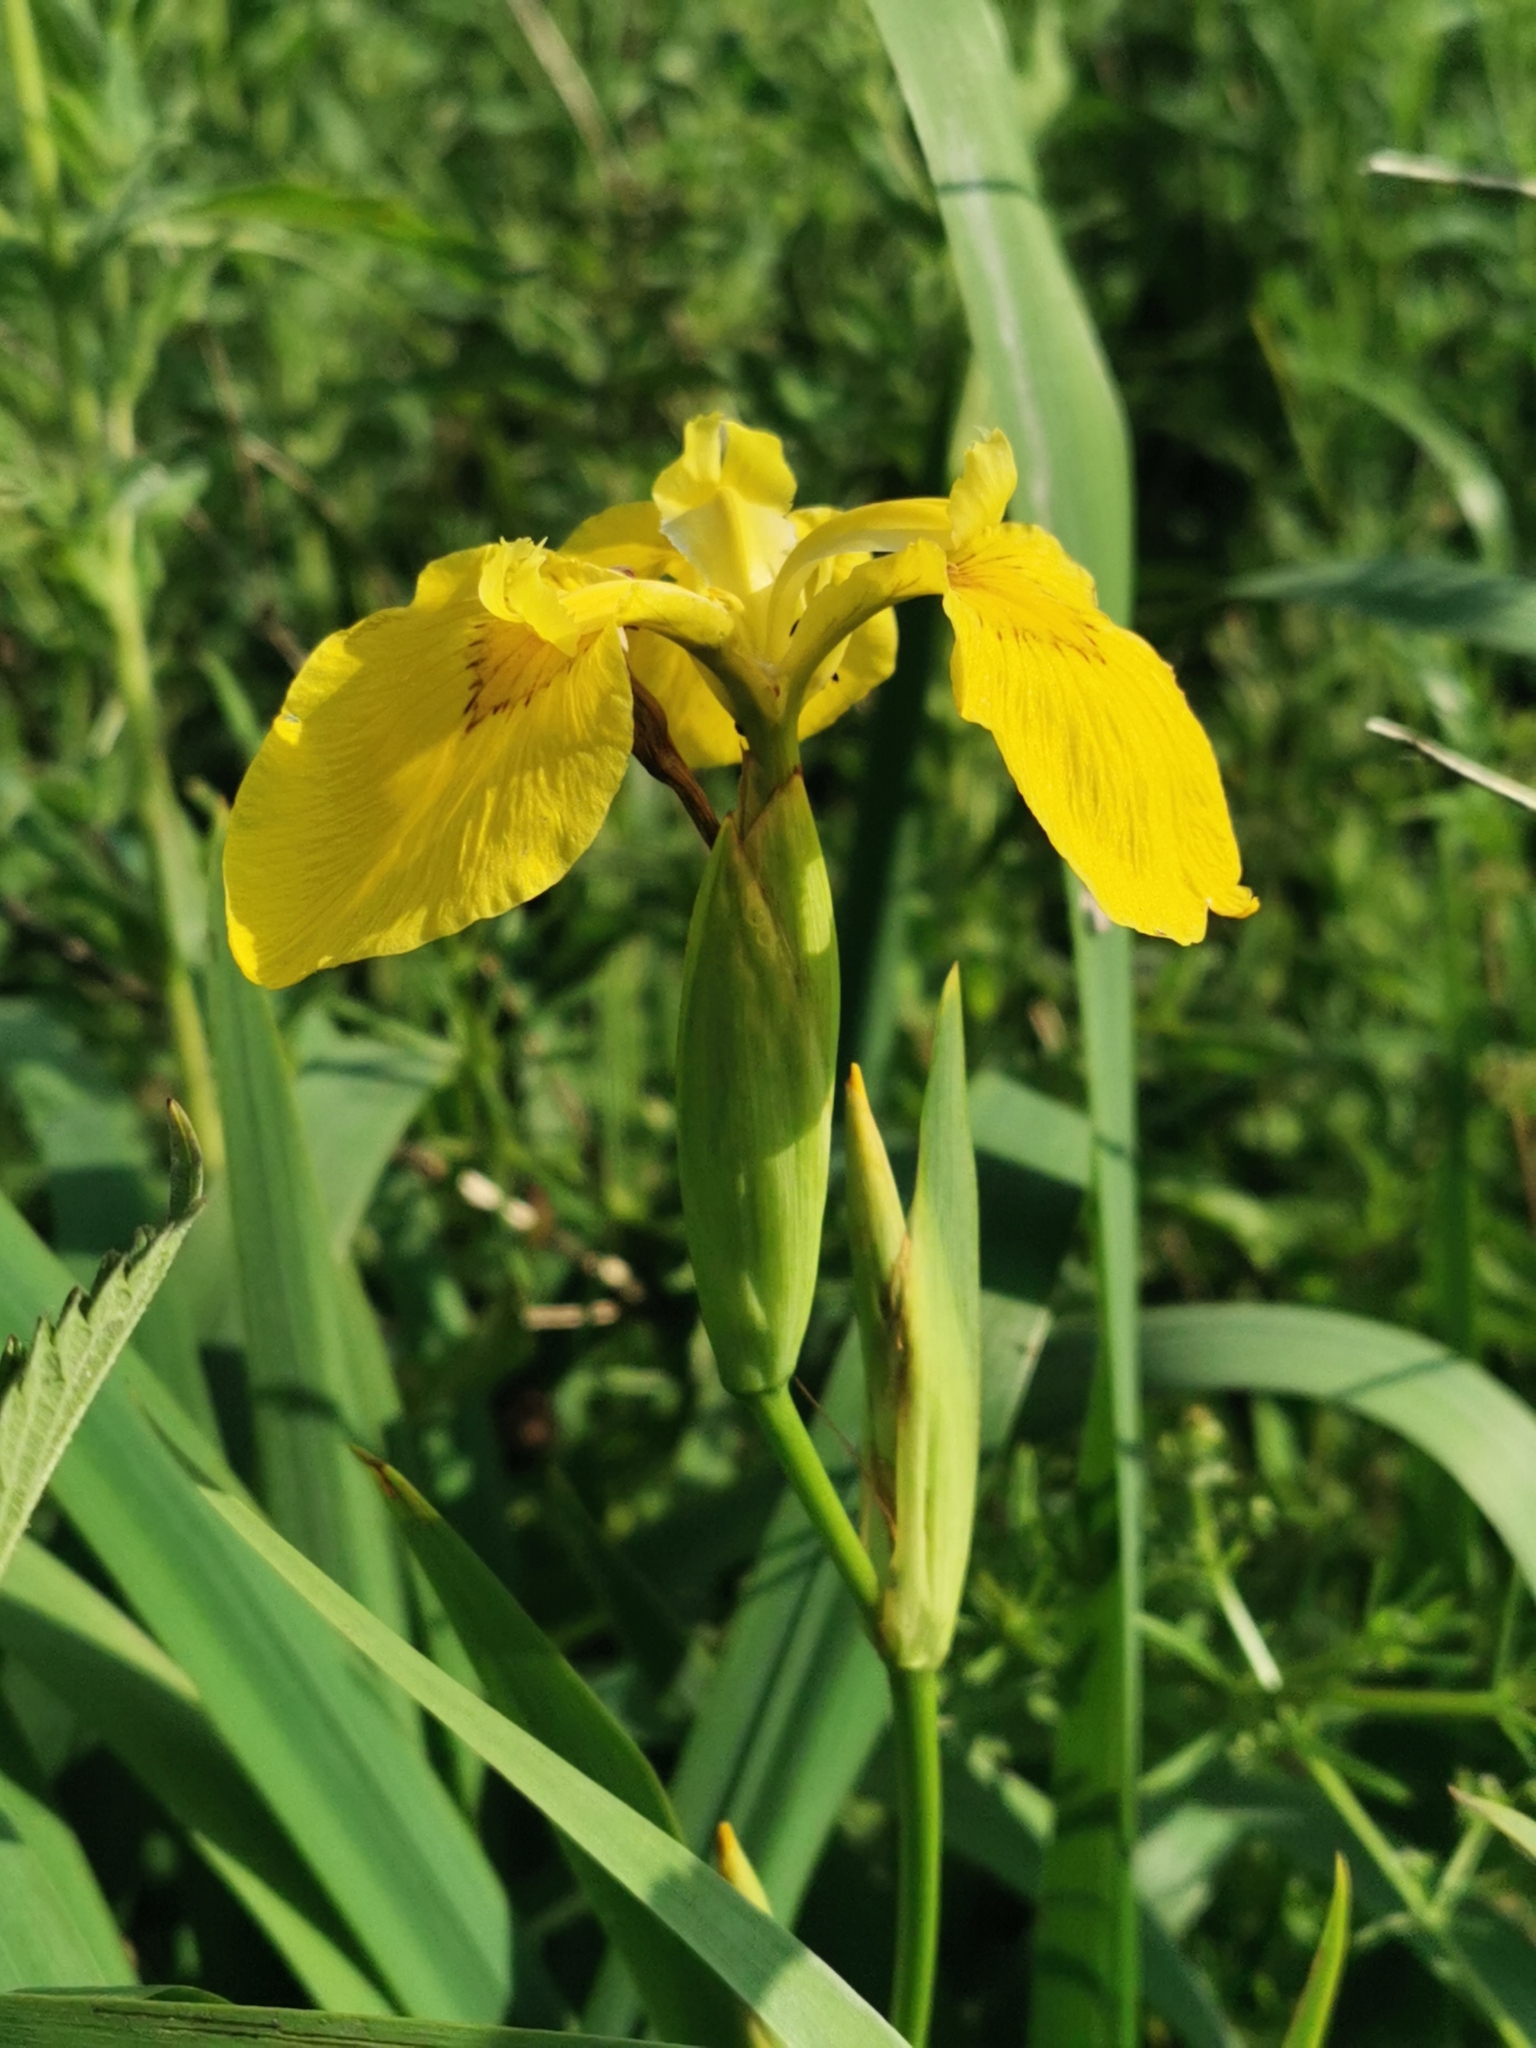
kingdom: Plantae
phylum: Tracheophyta
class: Liliopsida
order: Asparagales
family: Iridaceae
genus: Iris
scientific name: Iris pseudacorus
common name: Yellow flag
